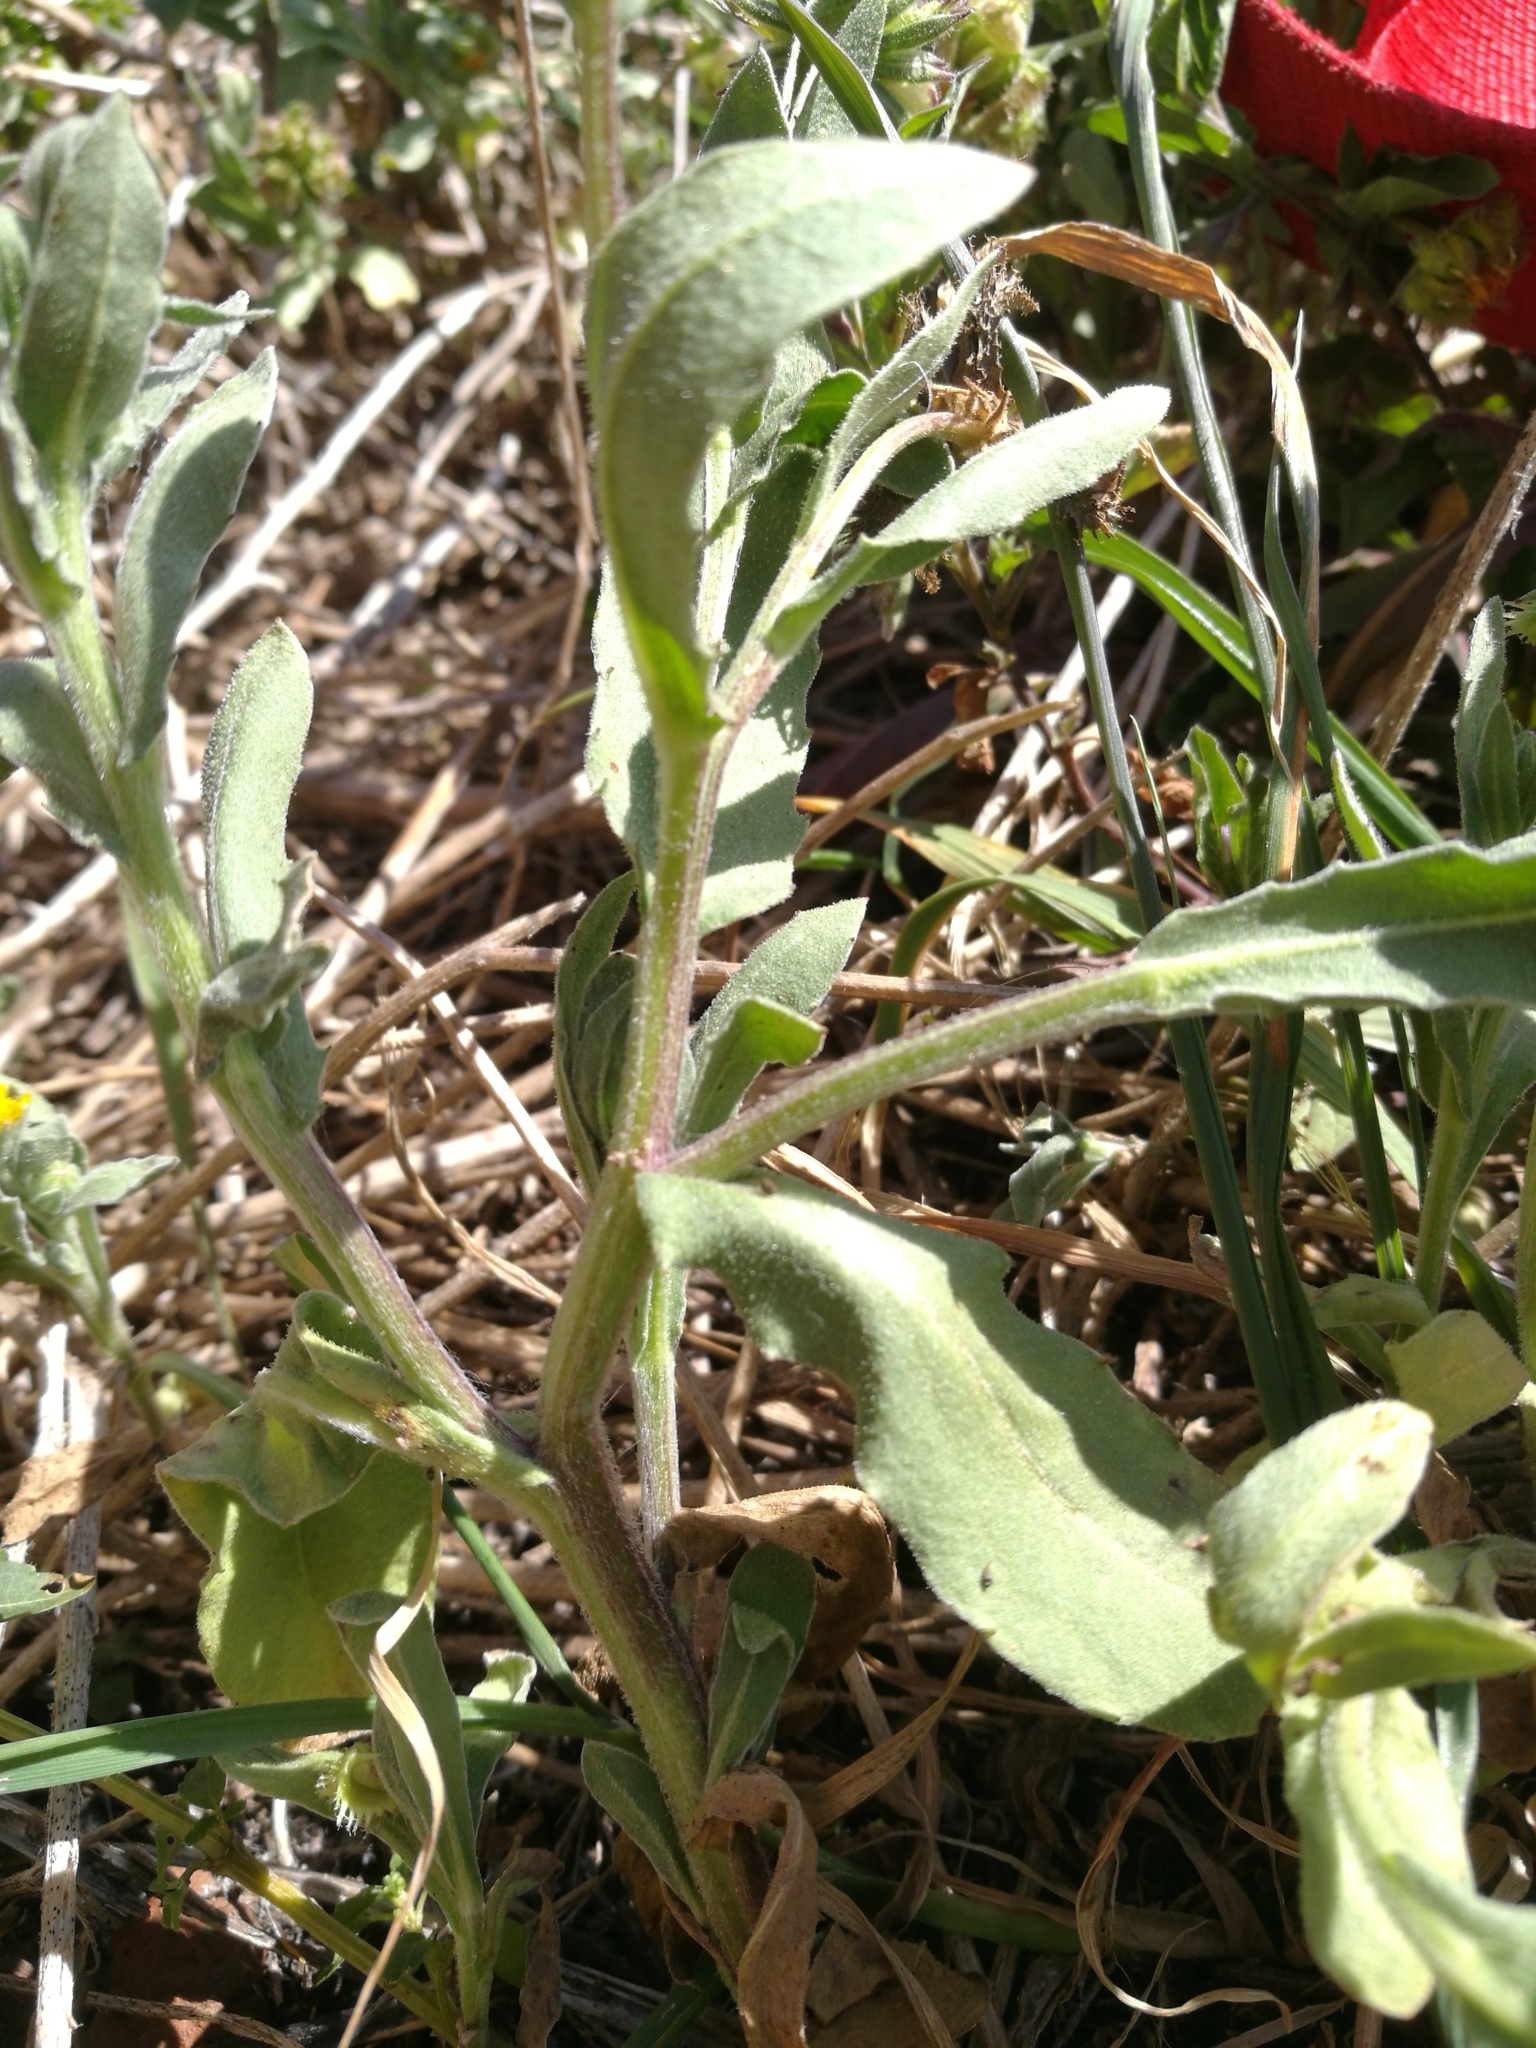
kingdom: Plantae
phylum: Tracheophyta
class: Magnoliopsida
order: Asterales
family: Asteraceae
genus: Calendula
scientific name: Calendula arvensis
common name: Field marigold
